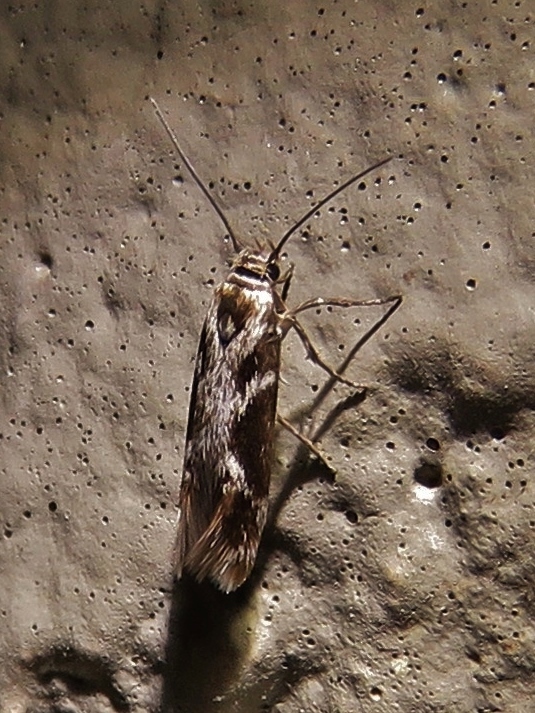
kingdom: Animalia
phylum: Arthropoda
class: Insecta
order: Lepidoptera
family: Scythrididae
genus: Scythris
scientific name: Scythris trivinctella
